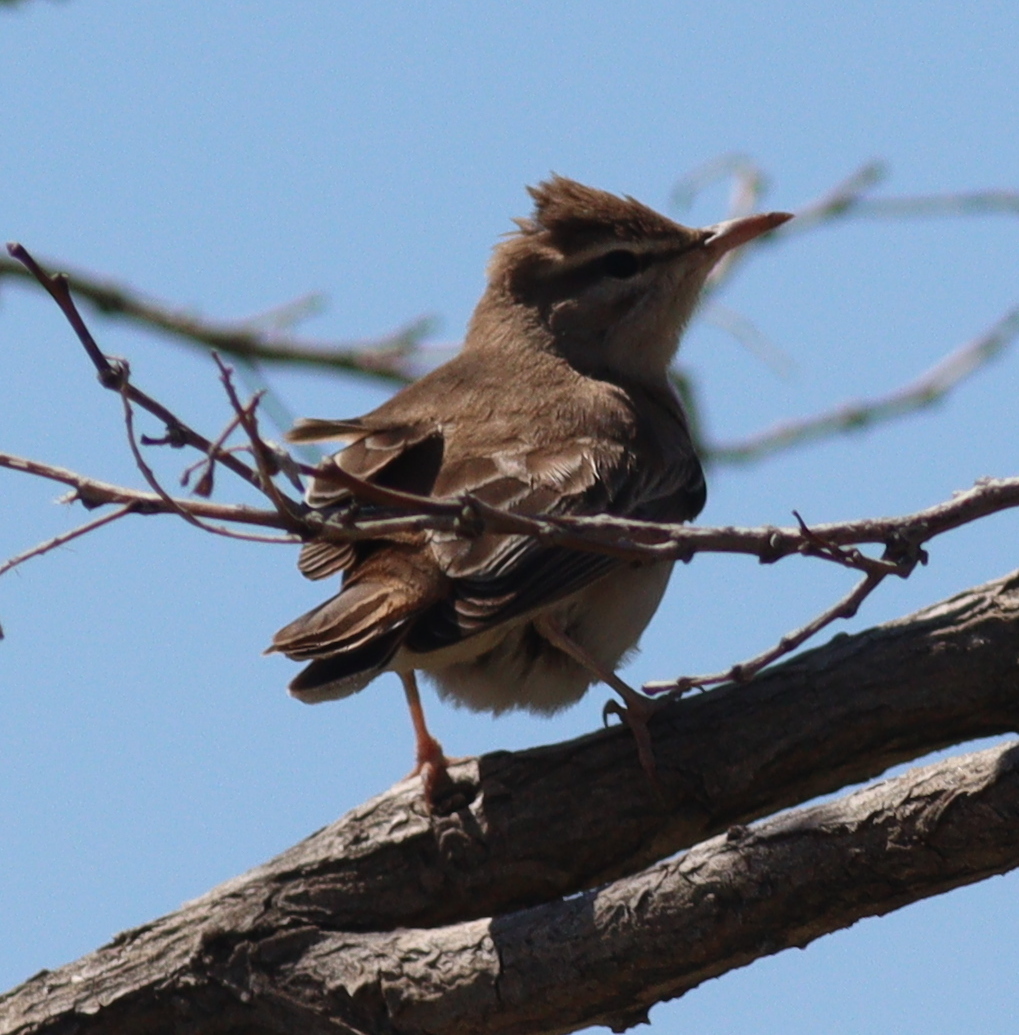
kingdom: Animalia
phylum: Chordata
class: Aves
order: Passeriformes
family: Muscicapidae
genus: Erythropygia
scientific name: Erythropygia galactotes
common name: Rufous-tailed scrub robin
